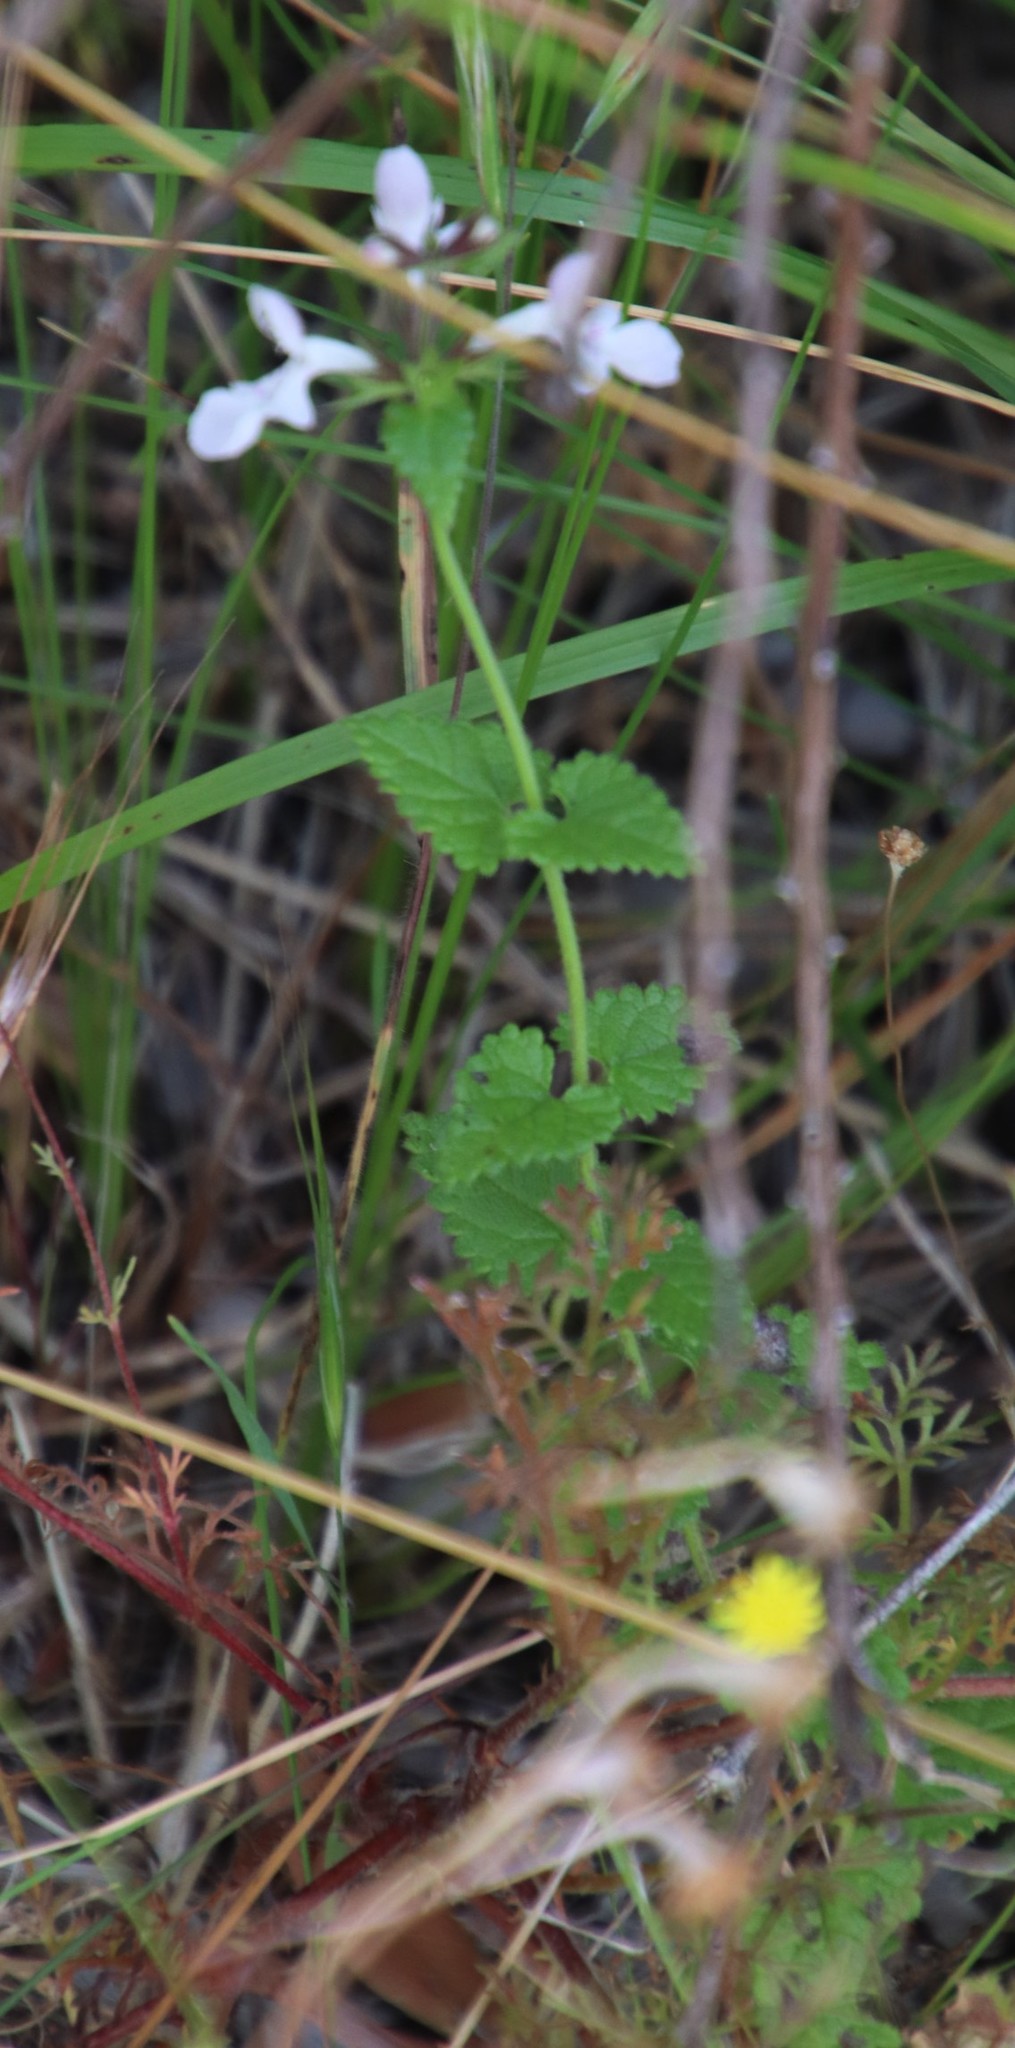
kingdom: Plantae
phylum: Tracheophyta
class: Magnoliopsida
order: Lamiales
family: Lamiaceae
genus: Stachys
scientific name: Stachys aethiopica
